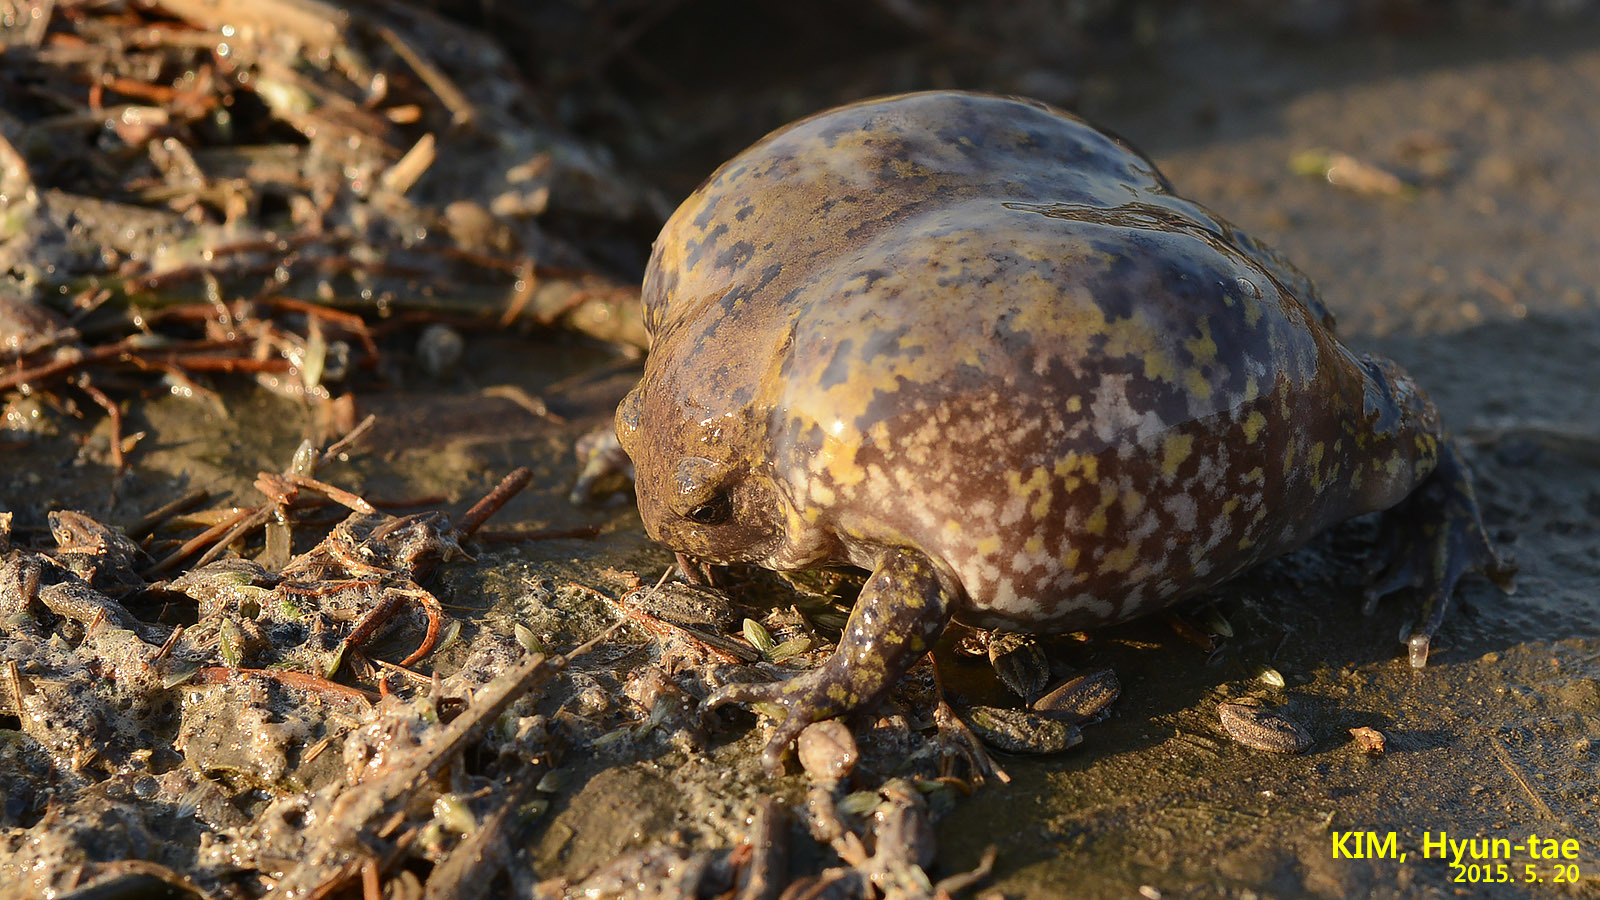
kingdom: Animalia
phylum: Chordata
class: Amphibia
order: Anura
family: Microhylidae
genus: Kaloula
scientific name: Kaloula borealis
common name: Boreal digging frog
